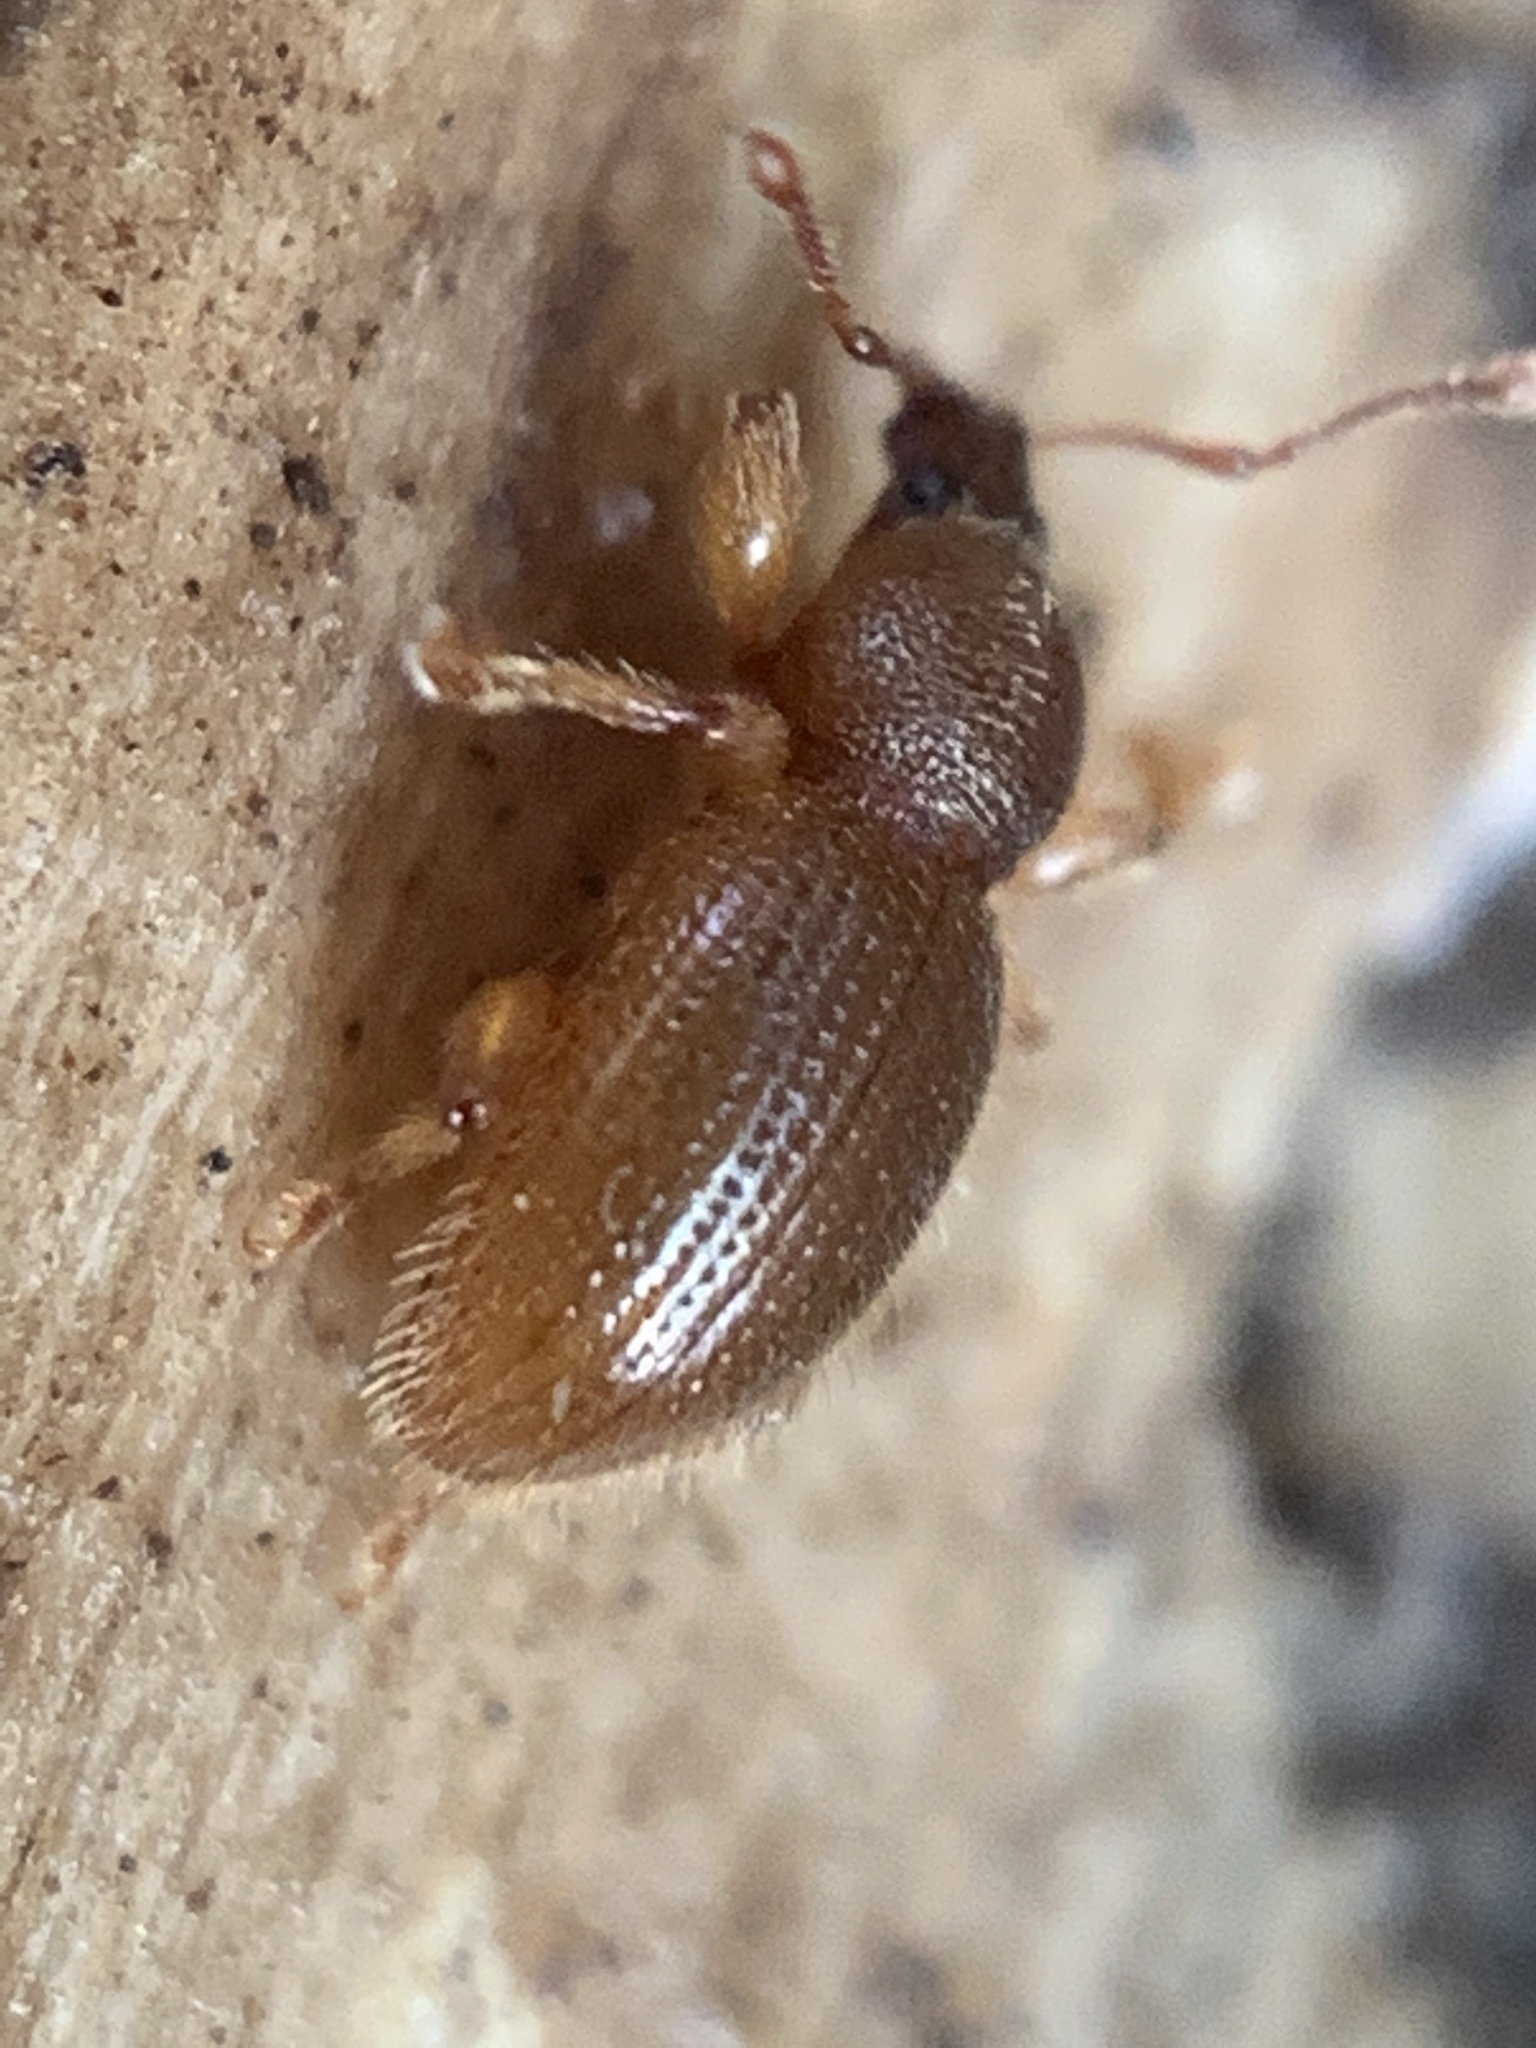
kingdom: Animalia
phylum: Arthropoda
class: Insecta
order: Coleoptera
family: Curculionidae
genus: Exomias
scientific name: Exomias pellucidus
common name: Hairy spider weevil
